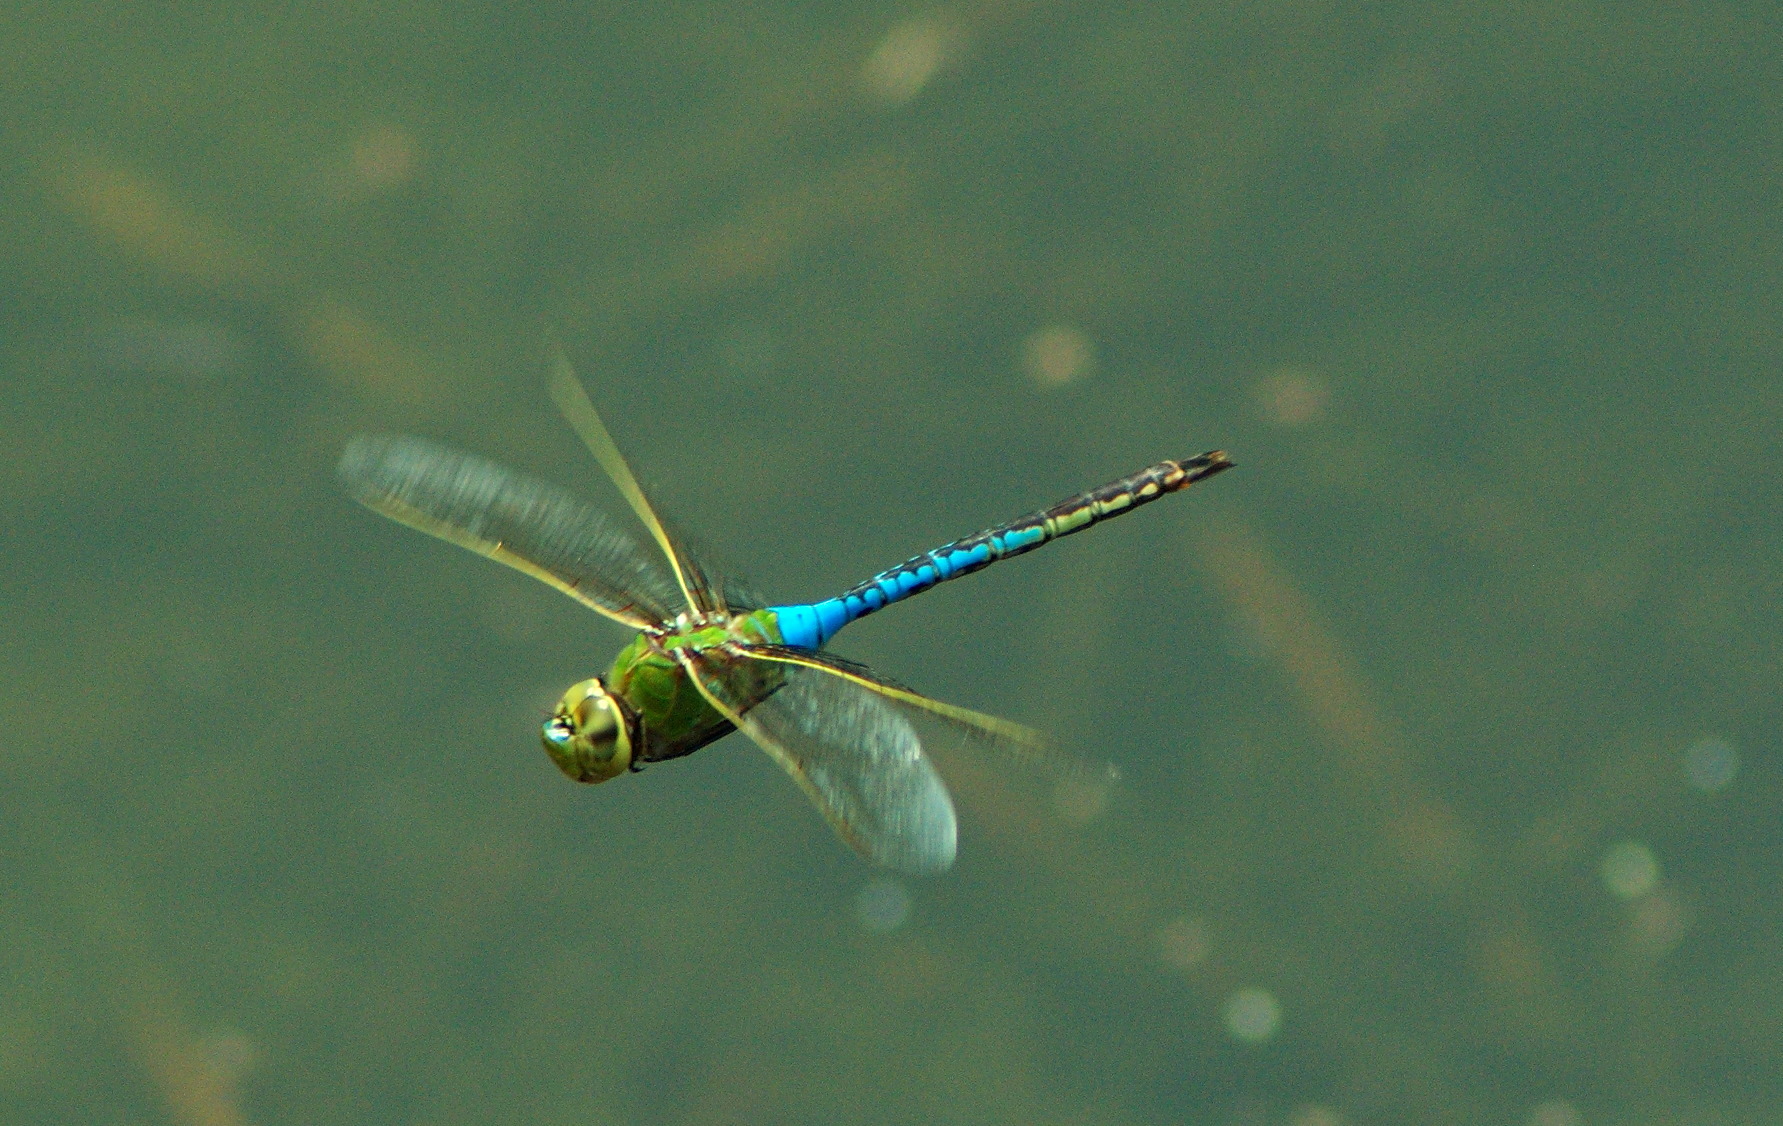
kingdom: Animalia
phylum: Arthropoda
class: Insecta
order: Odonata
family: Aeshnidae
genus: Anax
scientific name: Anax junius
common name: Common green darner
